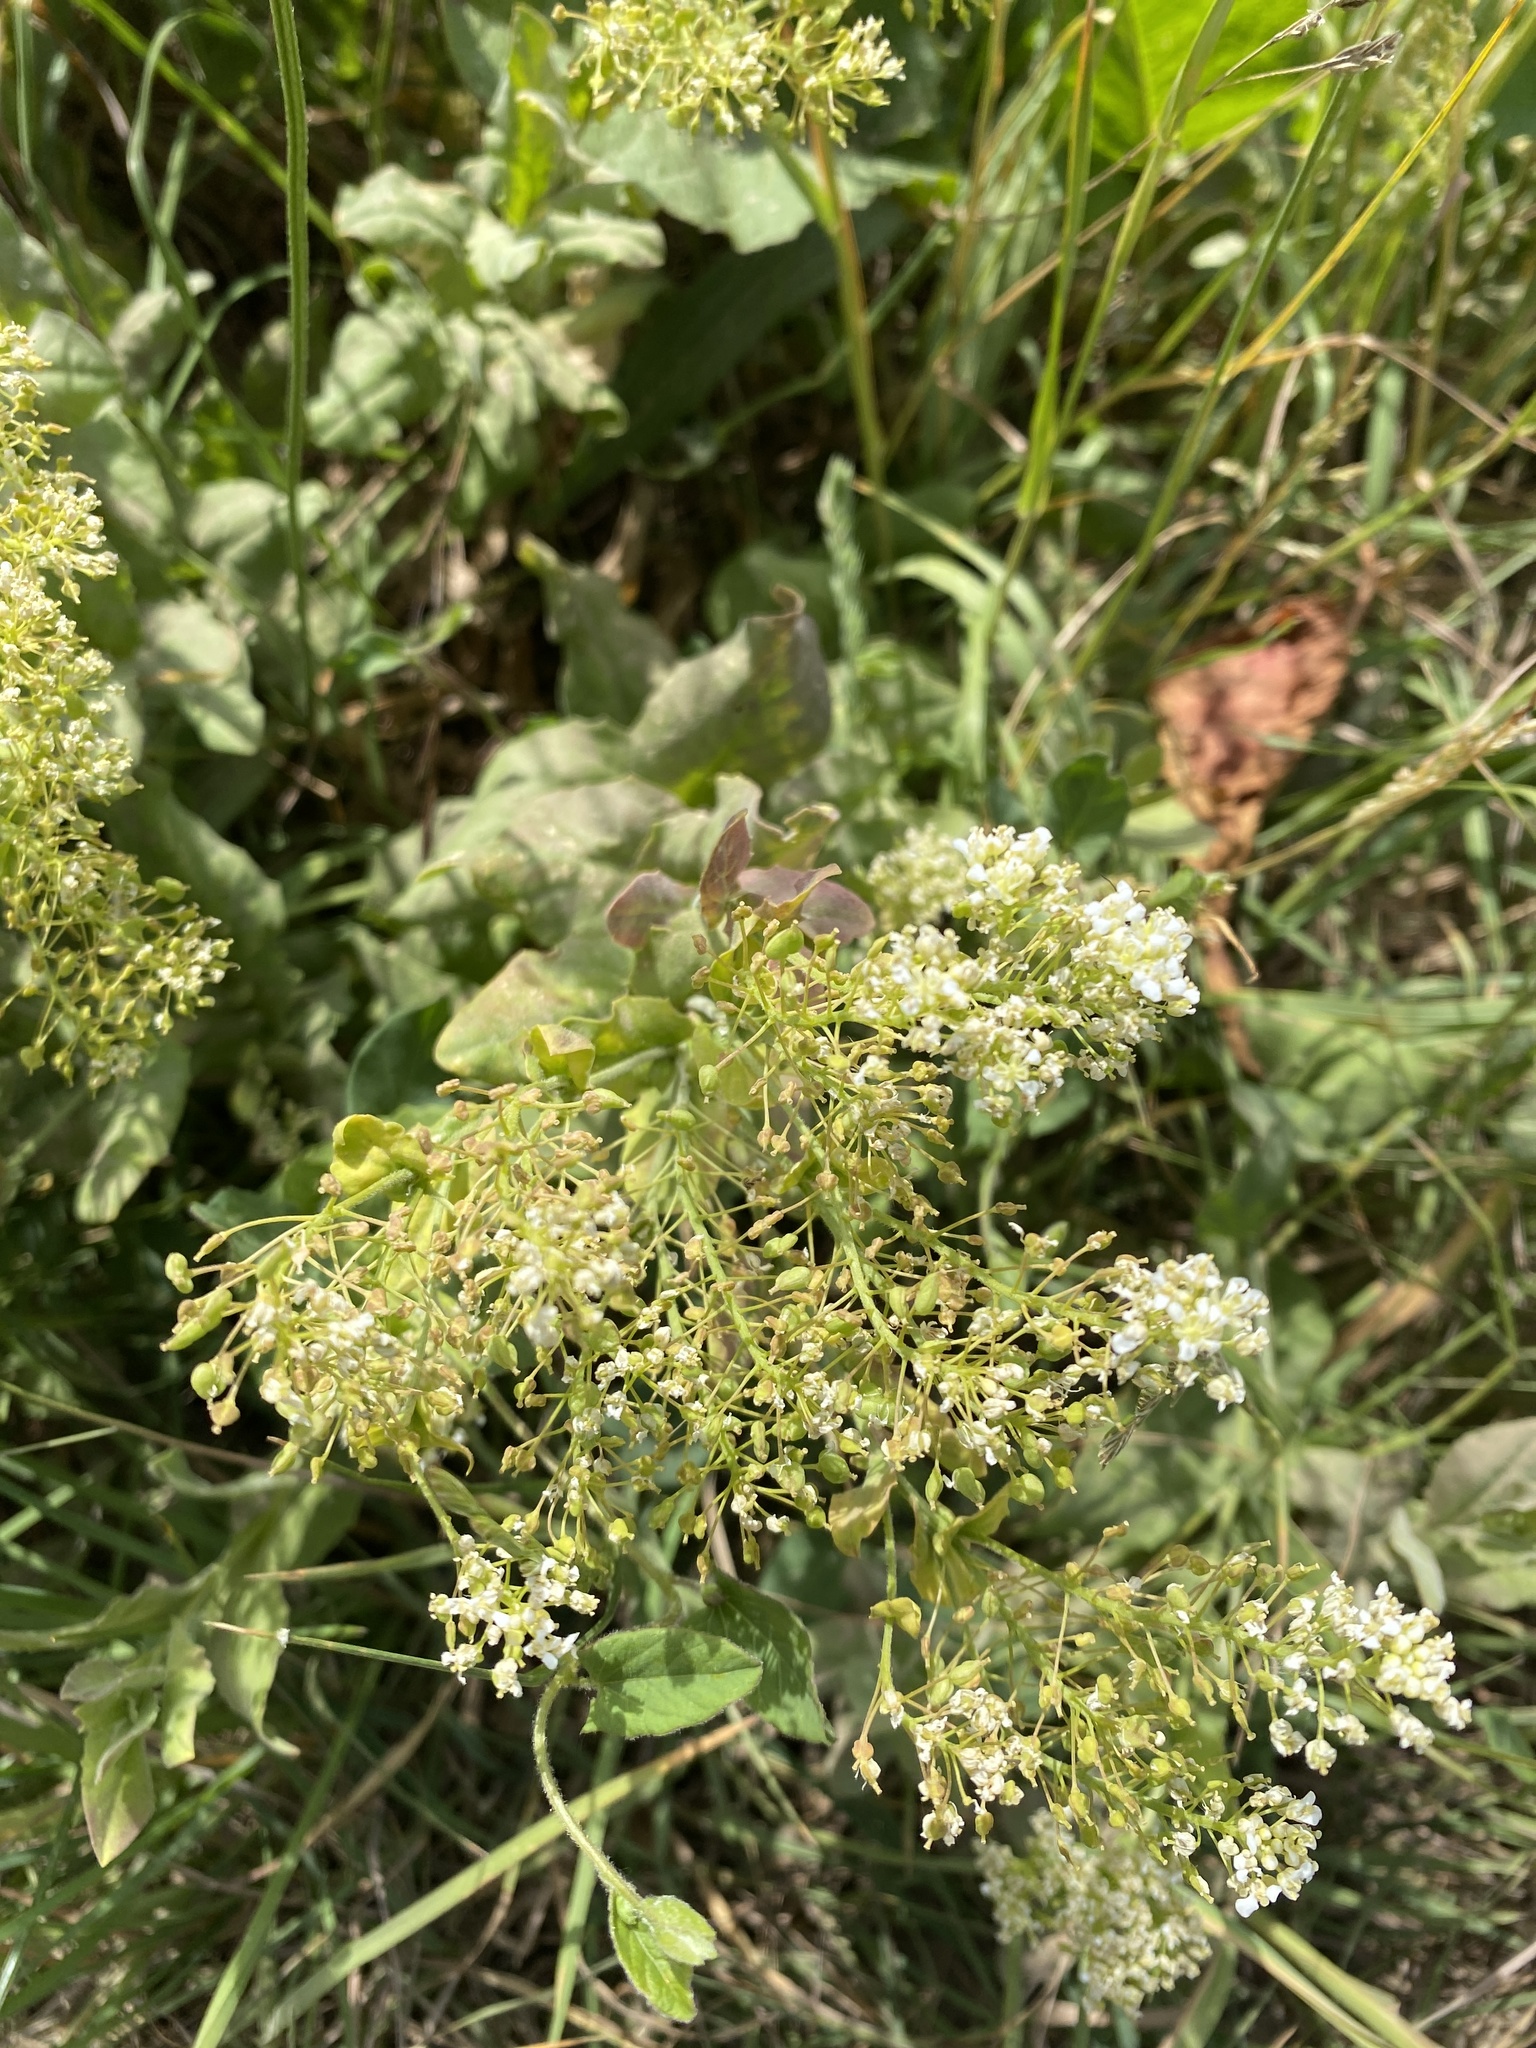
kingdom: Plantae
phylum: Tracheophyta
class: Magnoliopsida
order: Brassicales
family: Brassicaceae
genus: Lepidium
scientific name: Lepidium draba
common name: Hoary cress
